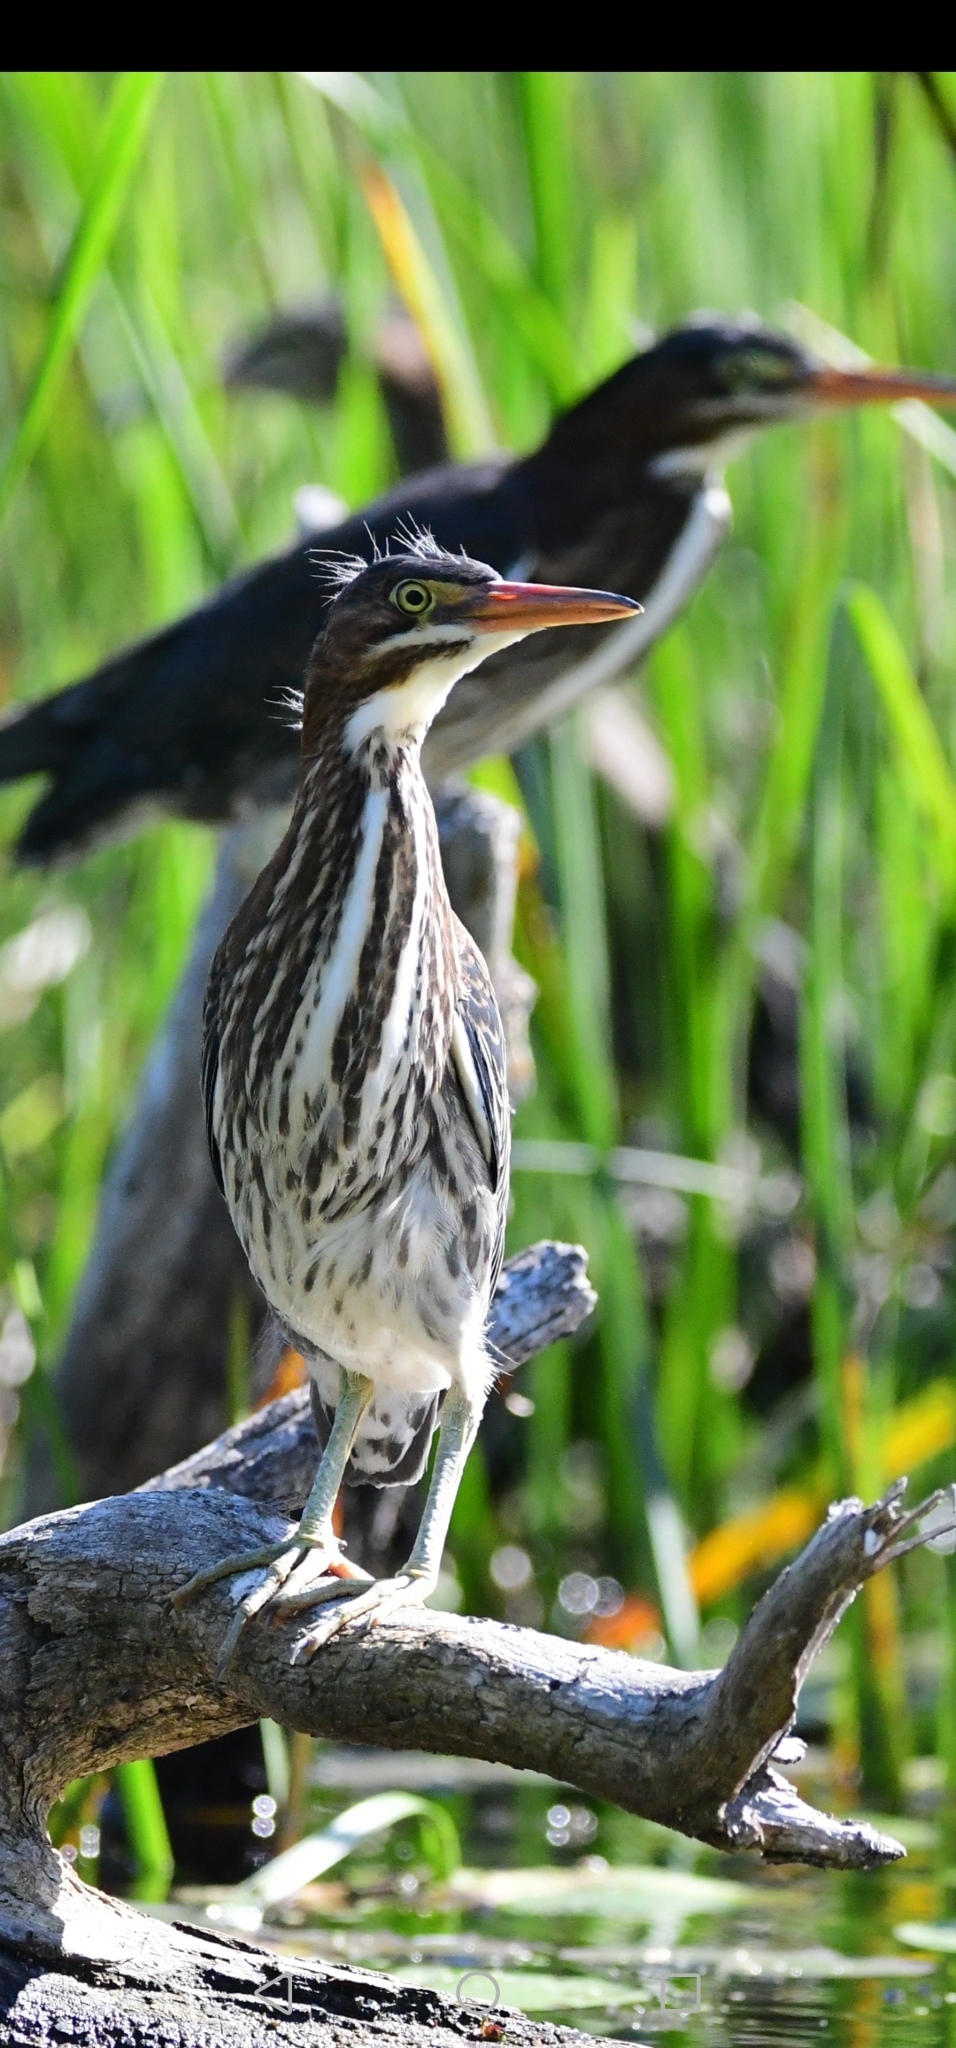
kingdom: Animalia
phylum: Chordata
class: Aves
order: Pelecaniformes
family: Ardeidae
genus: Butorides
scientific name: Butorides virescens
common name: Green heron
